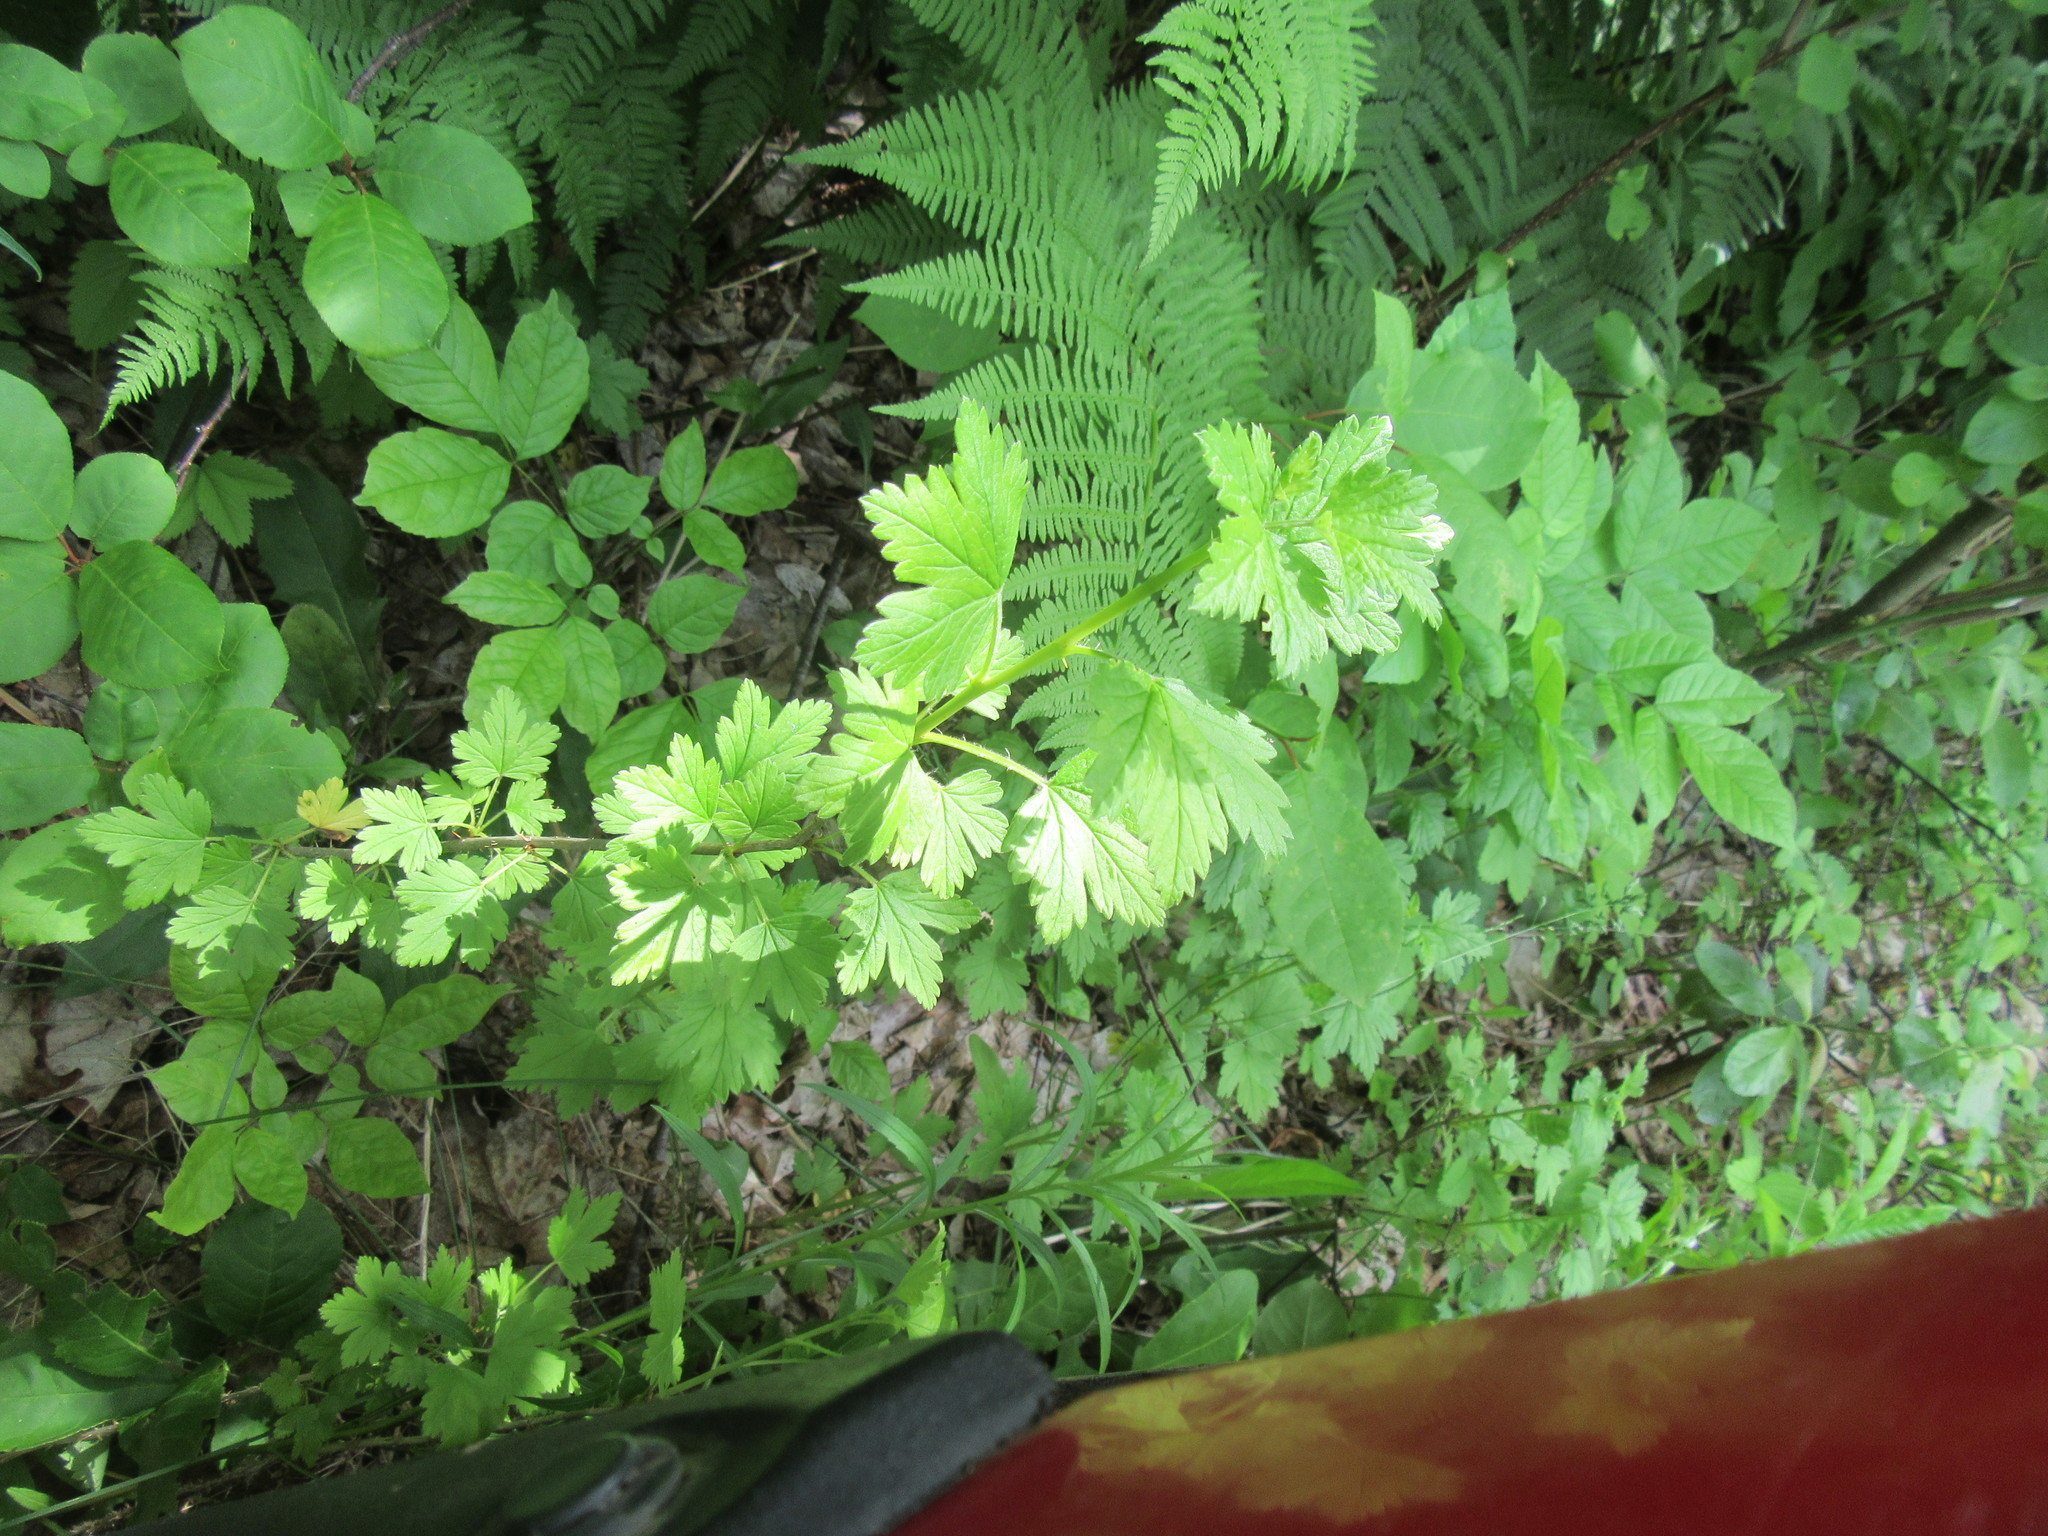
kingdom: Plantae
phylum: Tracheophyta
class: Magnoliopsida
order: Saxifragales
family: Grossulariaceae
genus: Ribes
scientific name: Ribes hirtellum
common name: Hairy gooseberry
